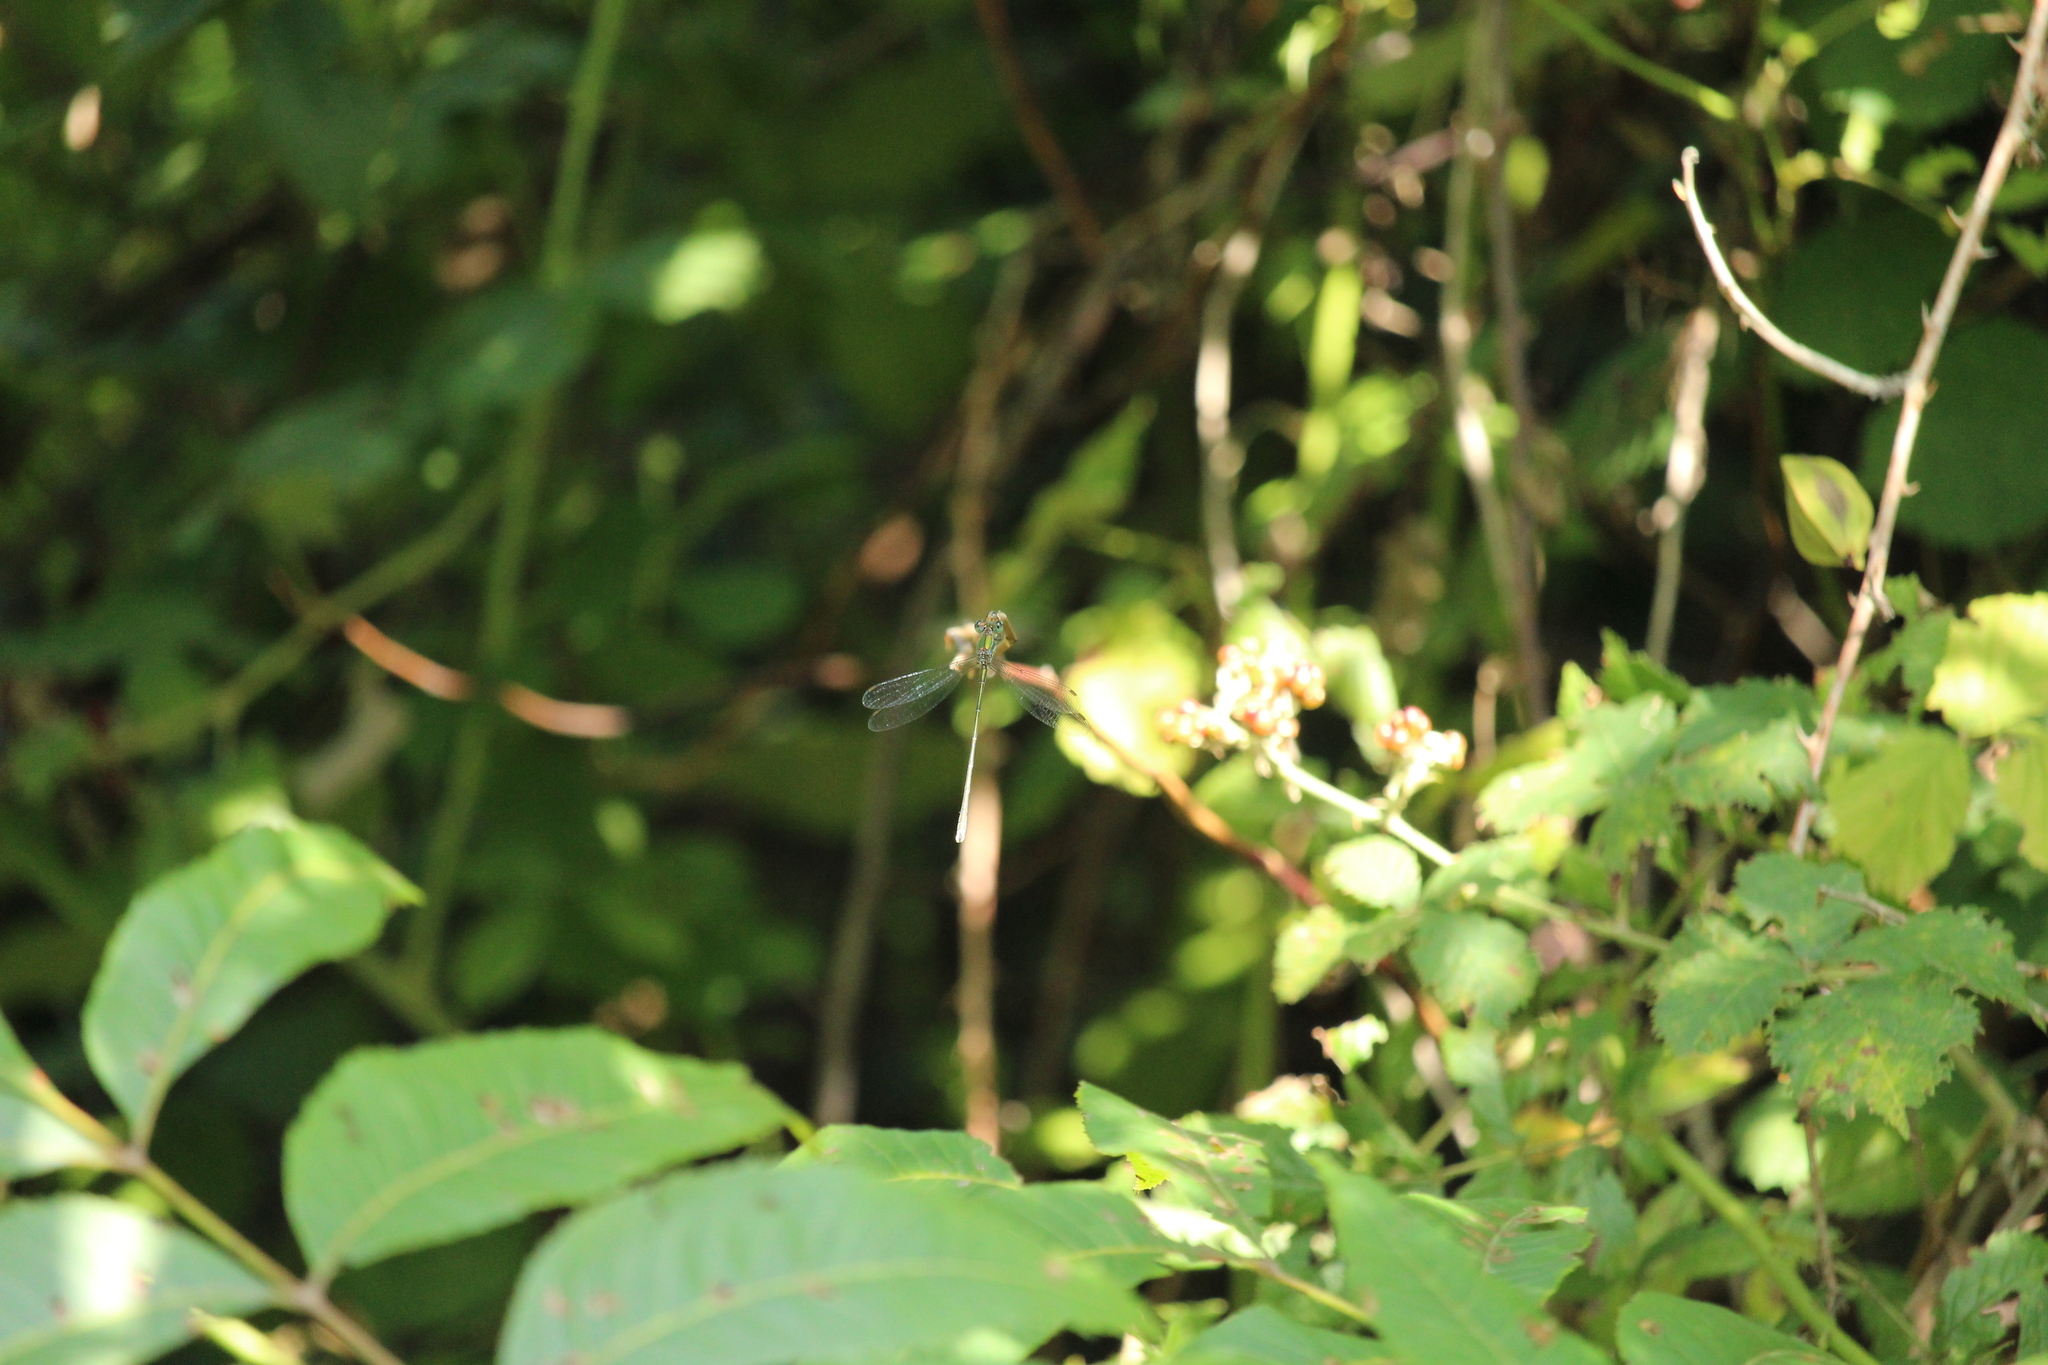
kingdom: Animalia
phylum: Arthropoda
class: Insecta
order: Odonata
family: Lestidae
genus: Chalcolestes
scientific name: Chalcolestes parvidens
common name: Eastern willow spreadwing
